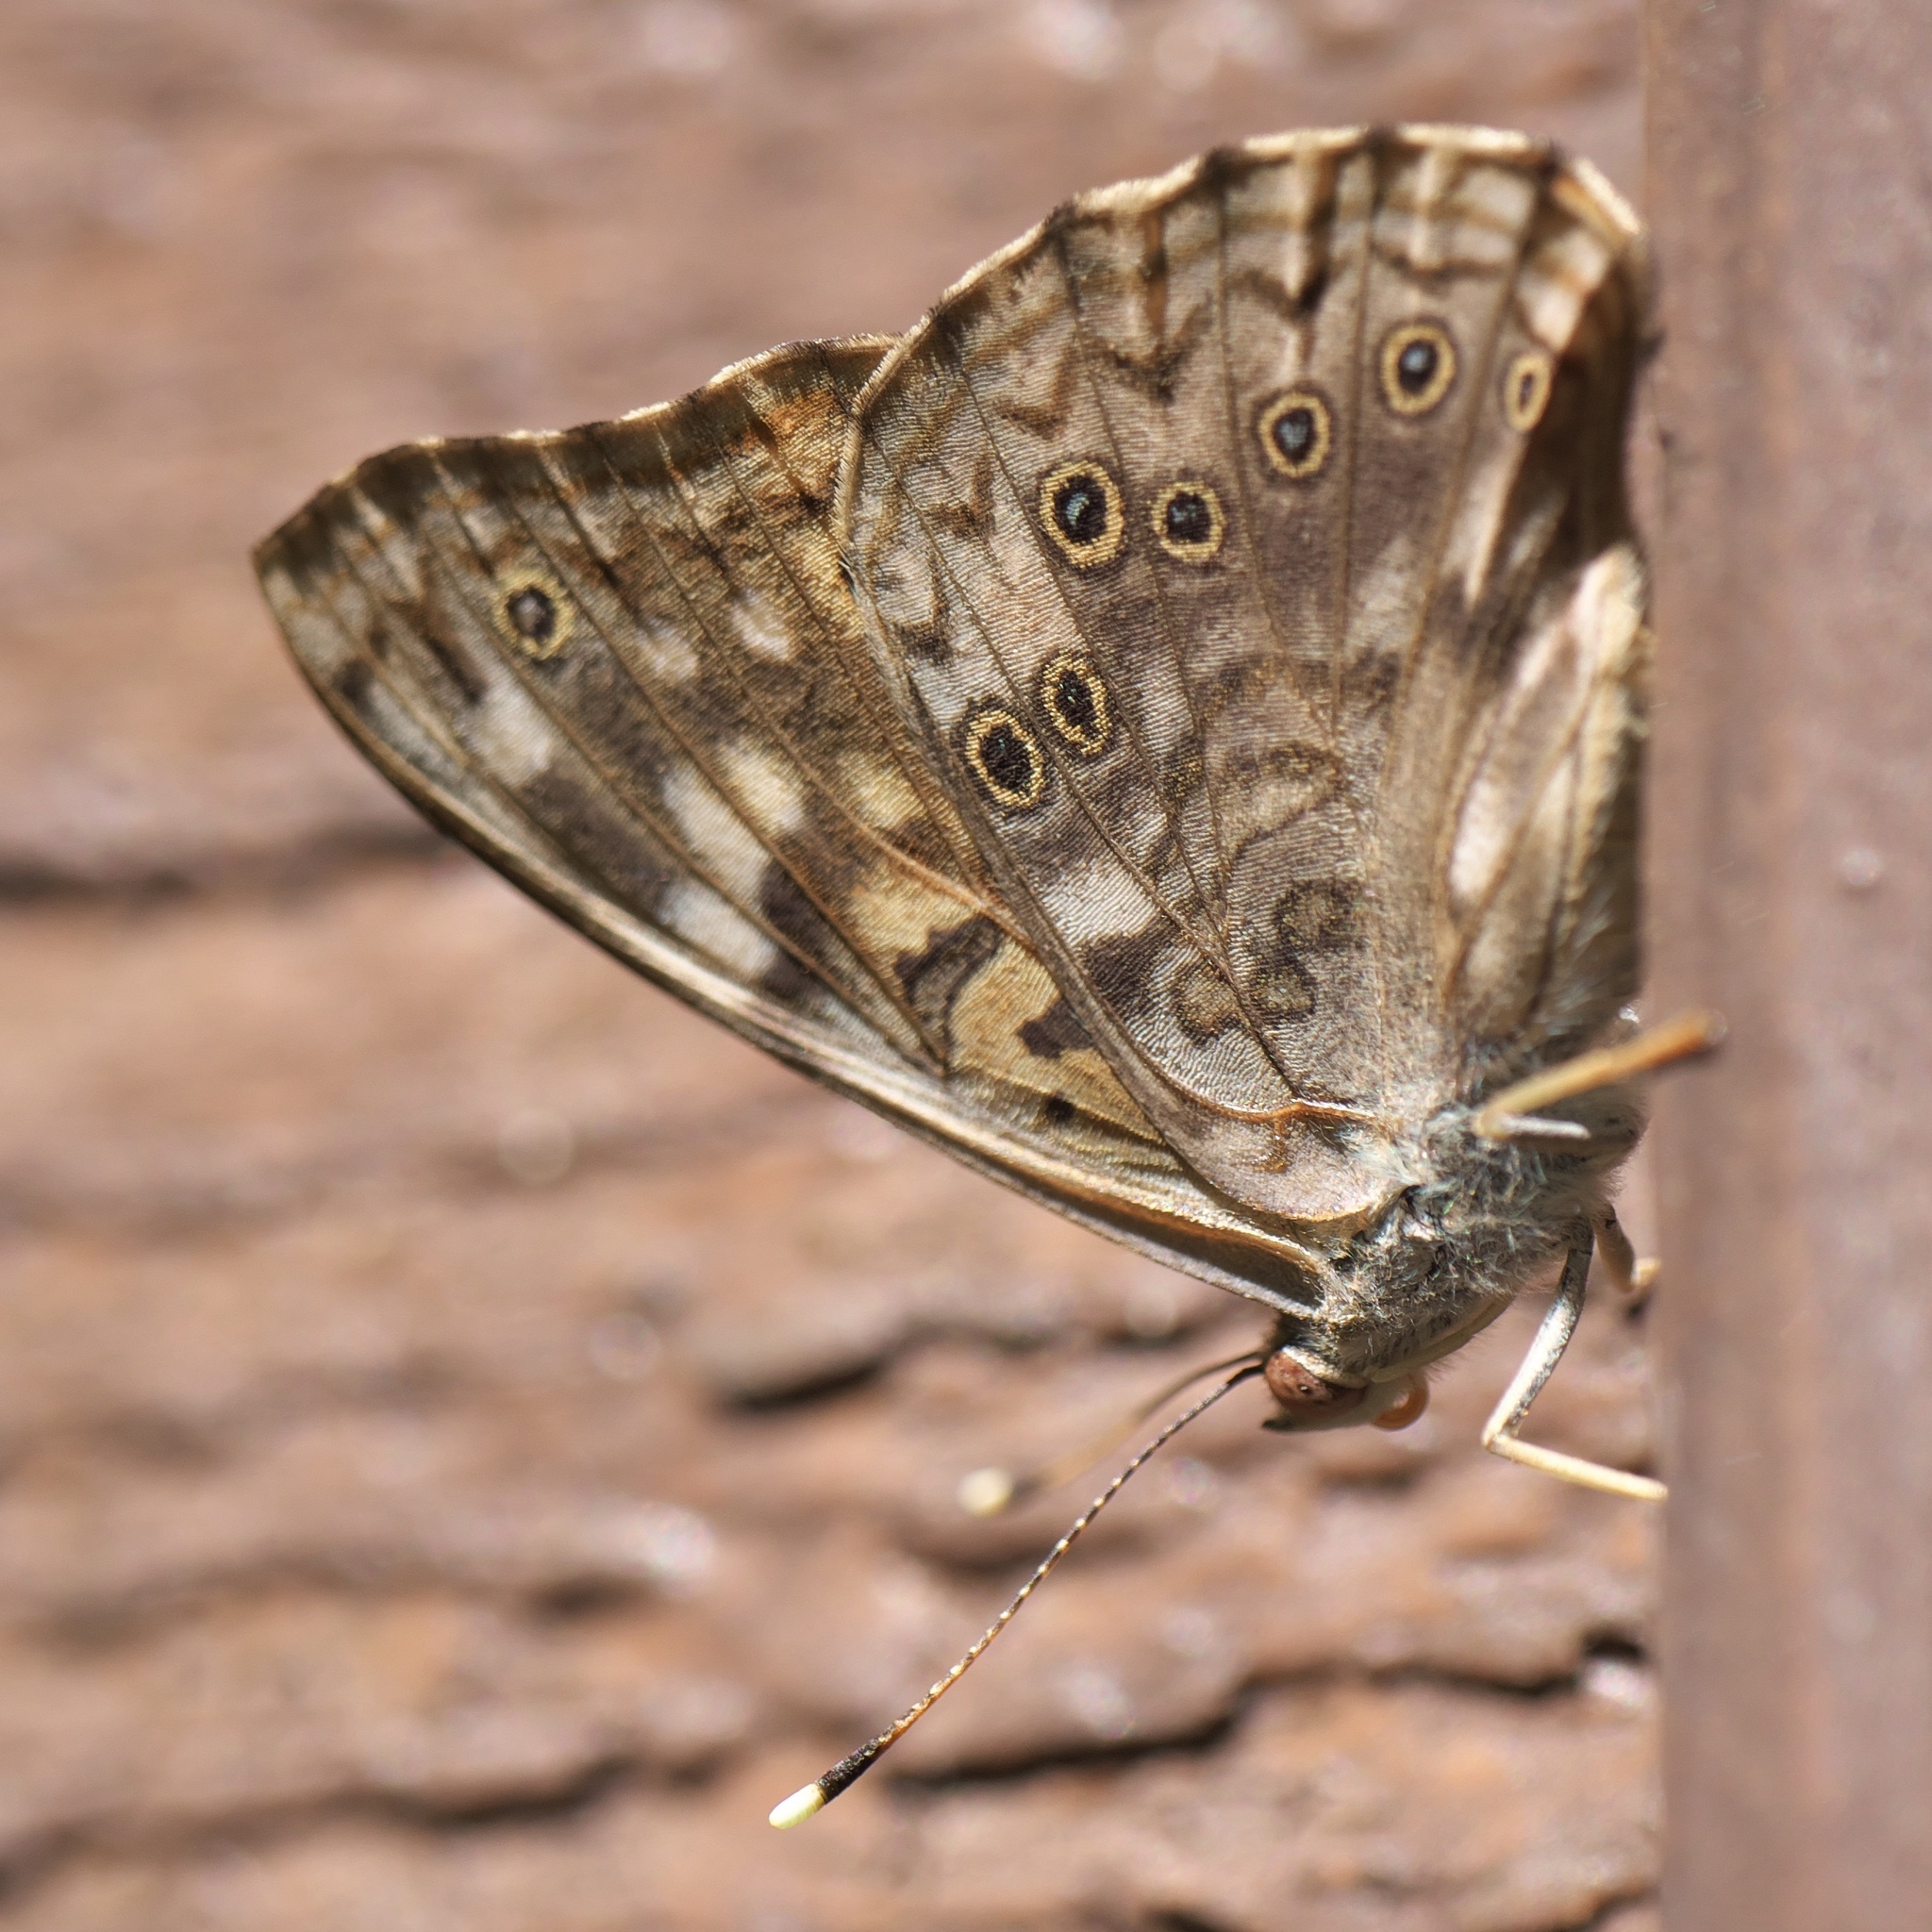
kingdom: Animalia
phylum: Arthropoda
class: Insecta
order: Lepidoptera
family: Nymphalidae
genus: Asterocampa
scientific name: Asterocampa celtis
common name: Hackberry emperor
